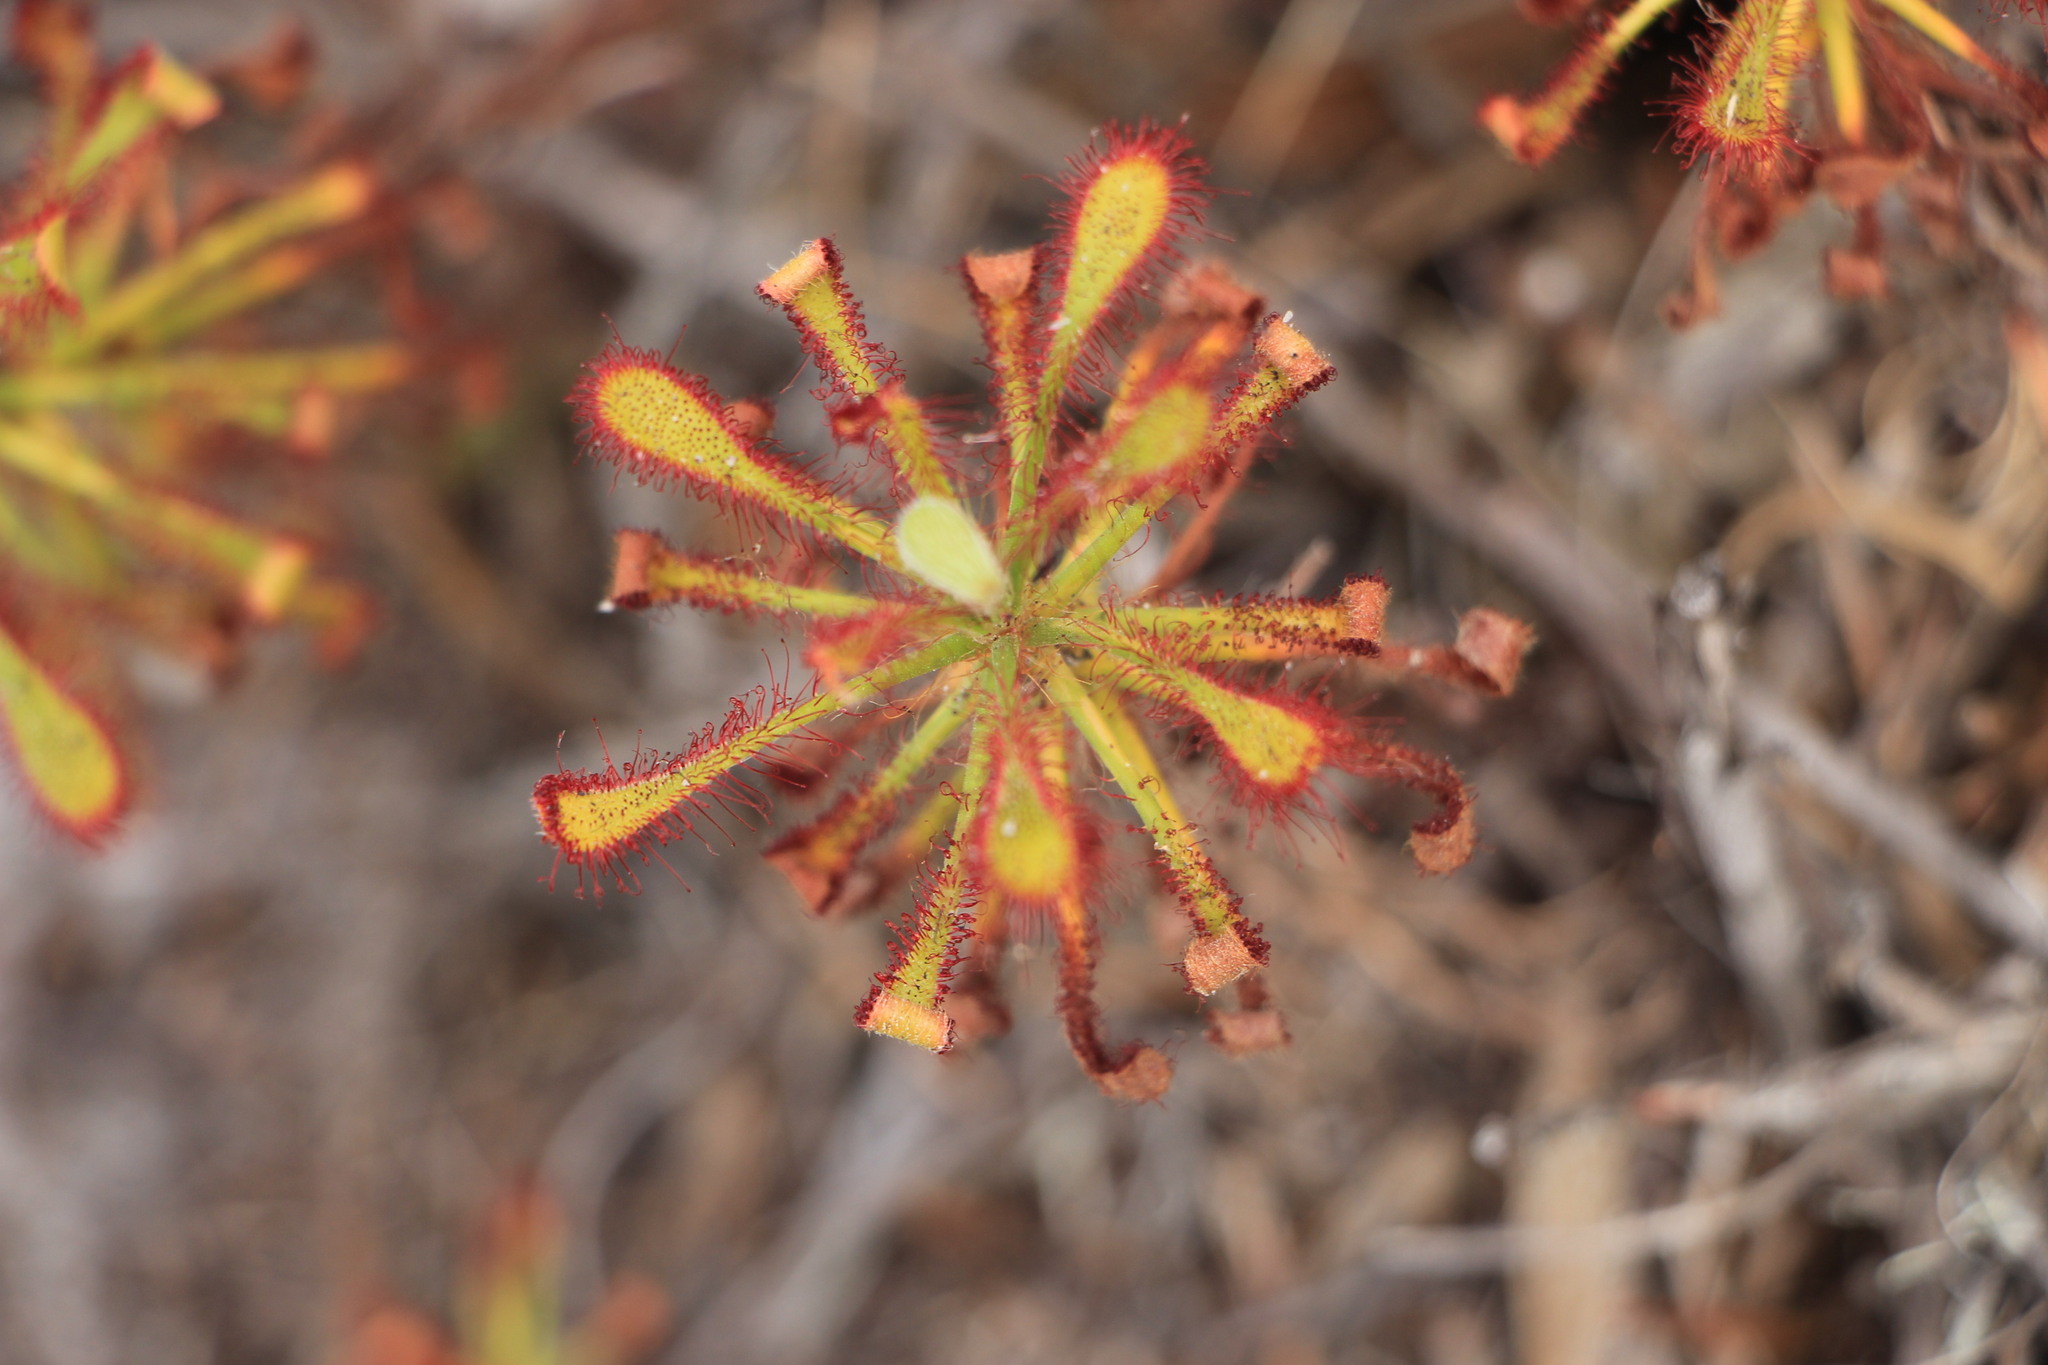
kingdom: Plantae
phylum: Tracheophyta
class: Magnoliopsida
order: Caryophyllales
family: Droseraceae
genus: Drosera
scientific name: Drosera glabripes
